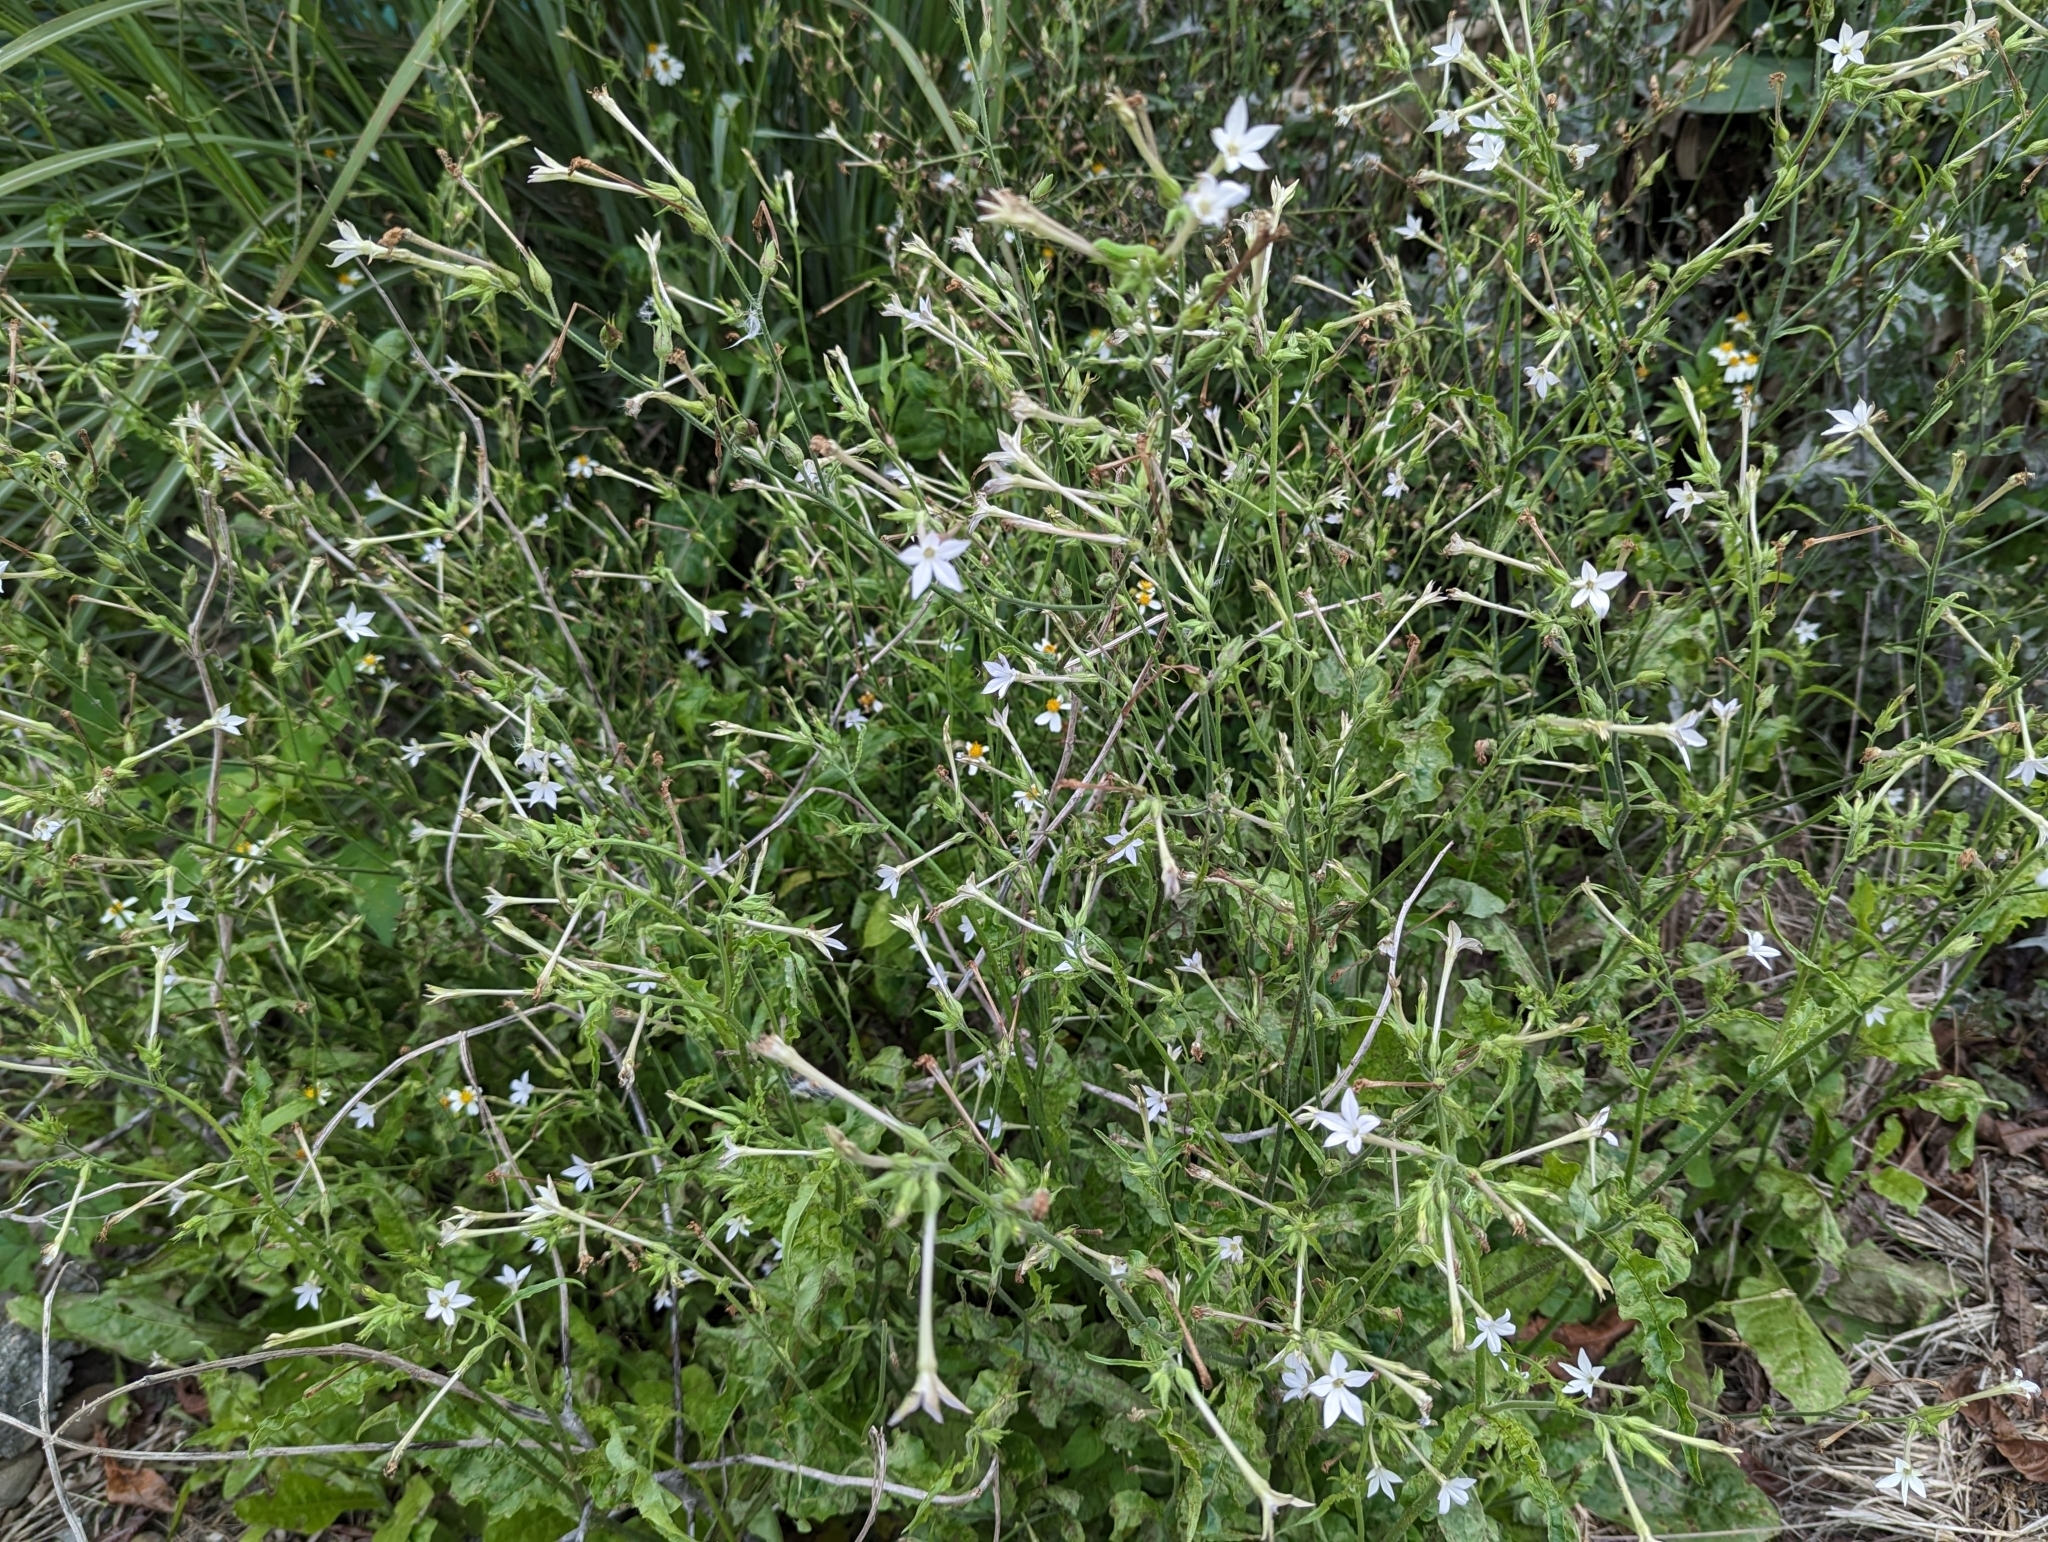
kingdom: Plantae
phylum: Tracheophyta
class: Magnoliopsida
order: Solanales
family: Solanaceae
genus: Nicotiana
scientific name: Nicotiana plumbaginifolia
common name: Tex-mex tobacco
